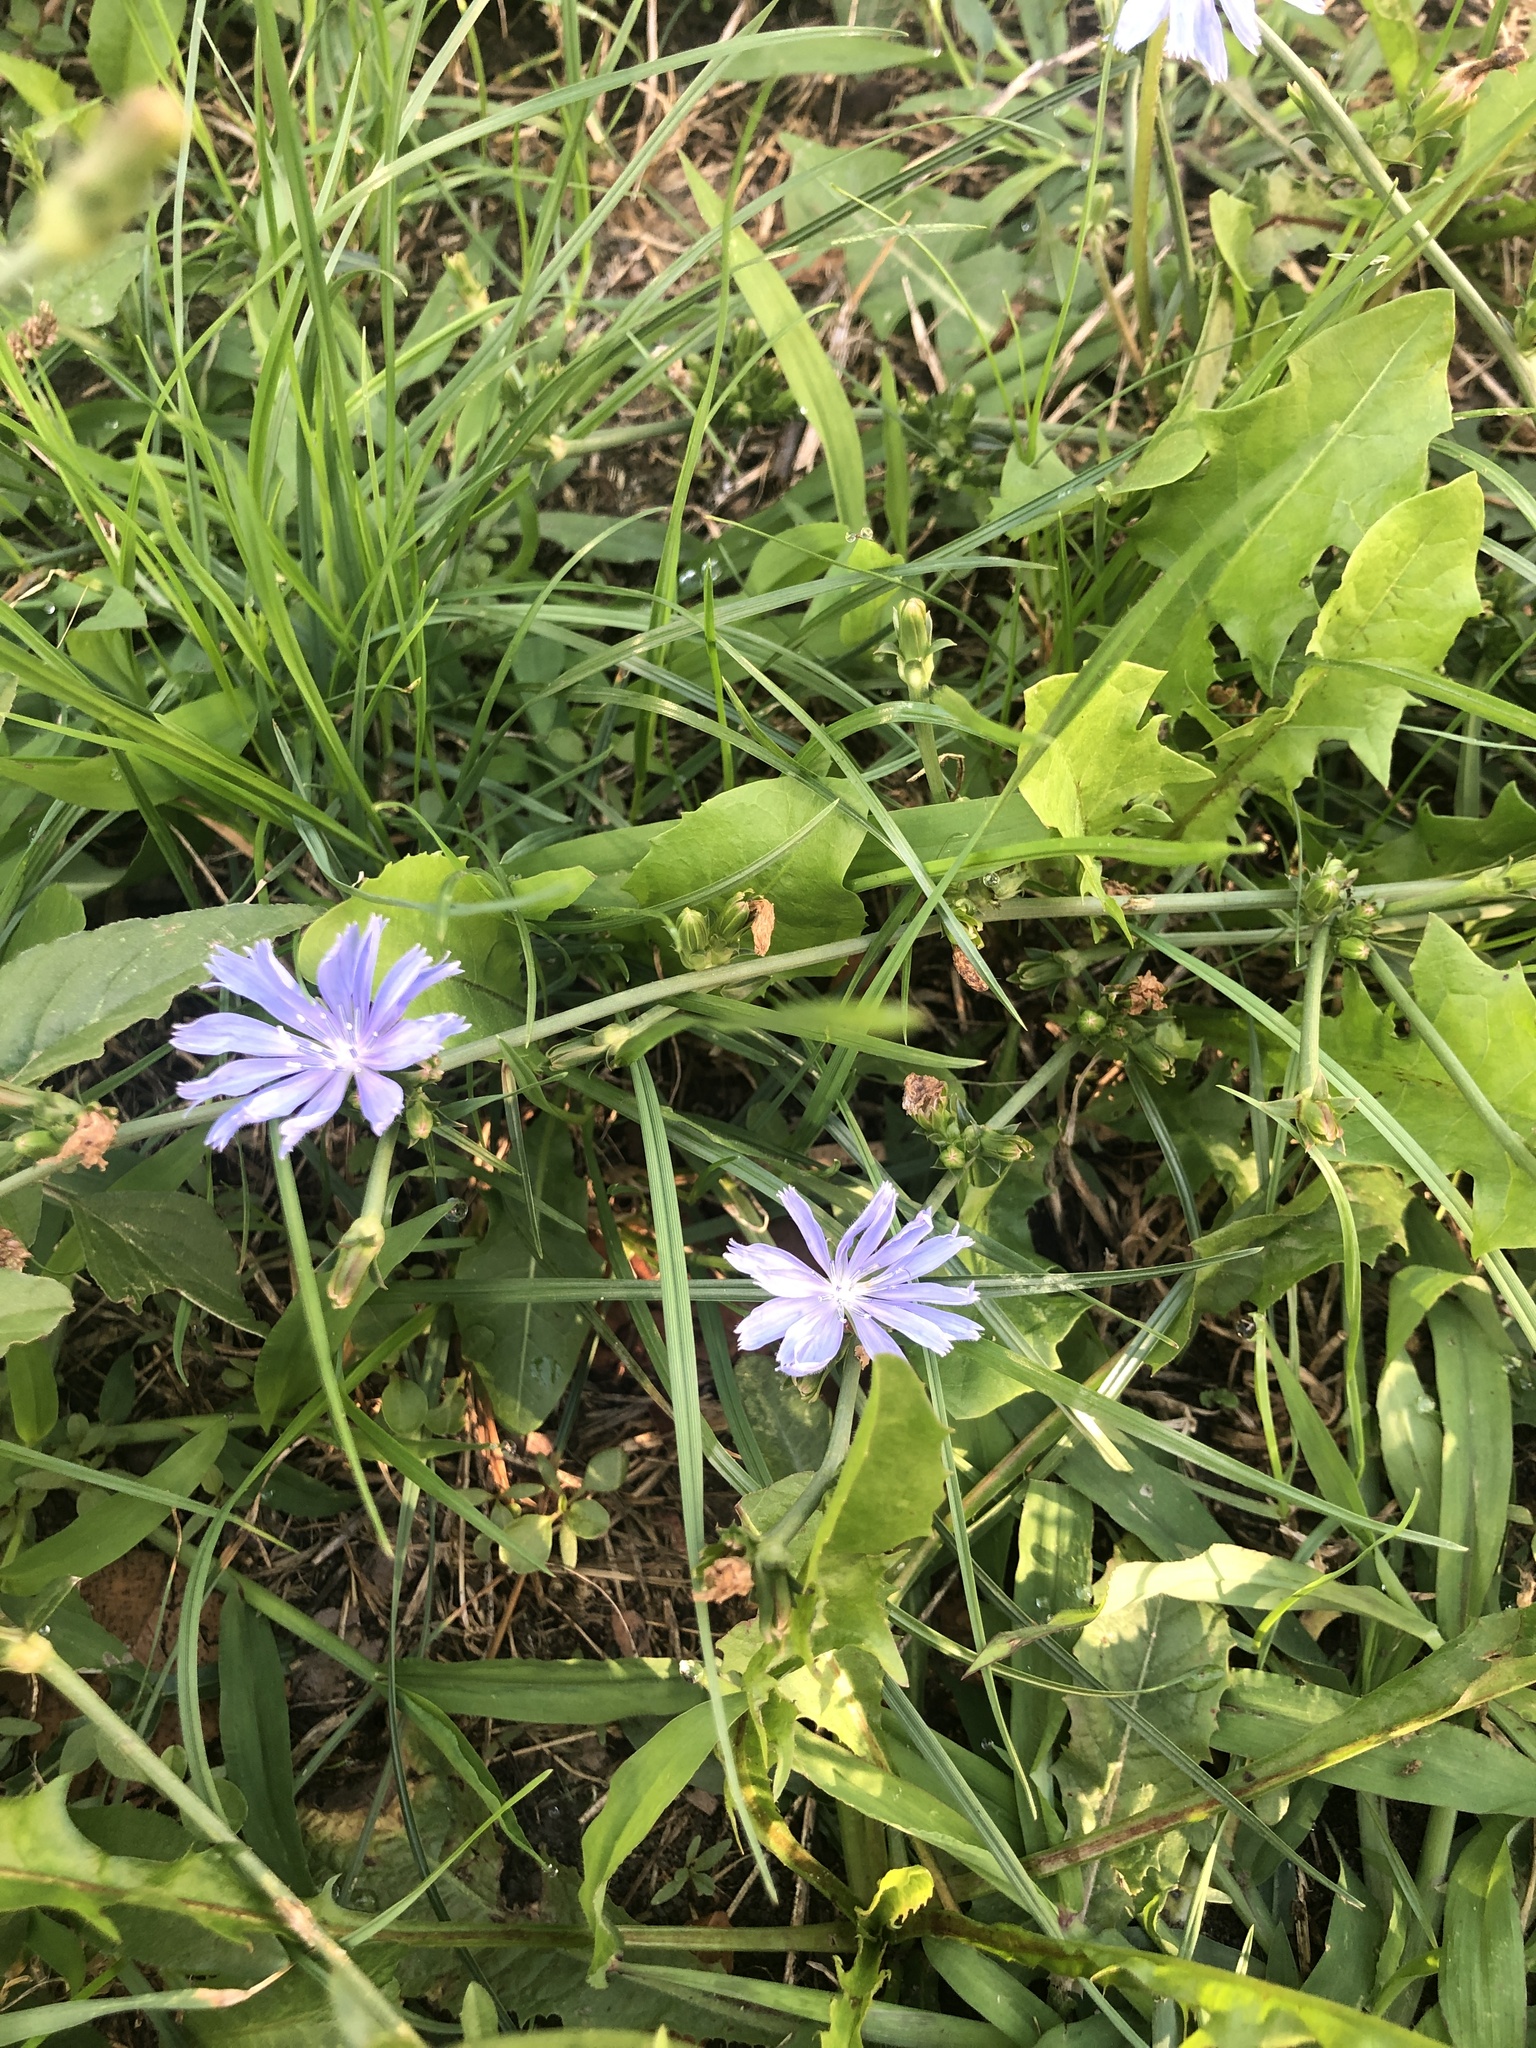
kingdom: Plantae
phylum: Tracheophyta
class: Magnoliopsida
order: Asterales
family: Asteraceae
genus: Cichorium
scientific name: Cichorium intybus
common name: Chicory
